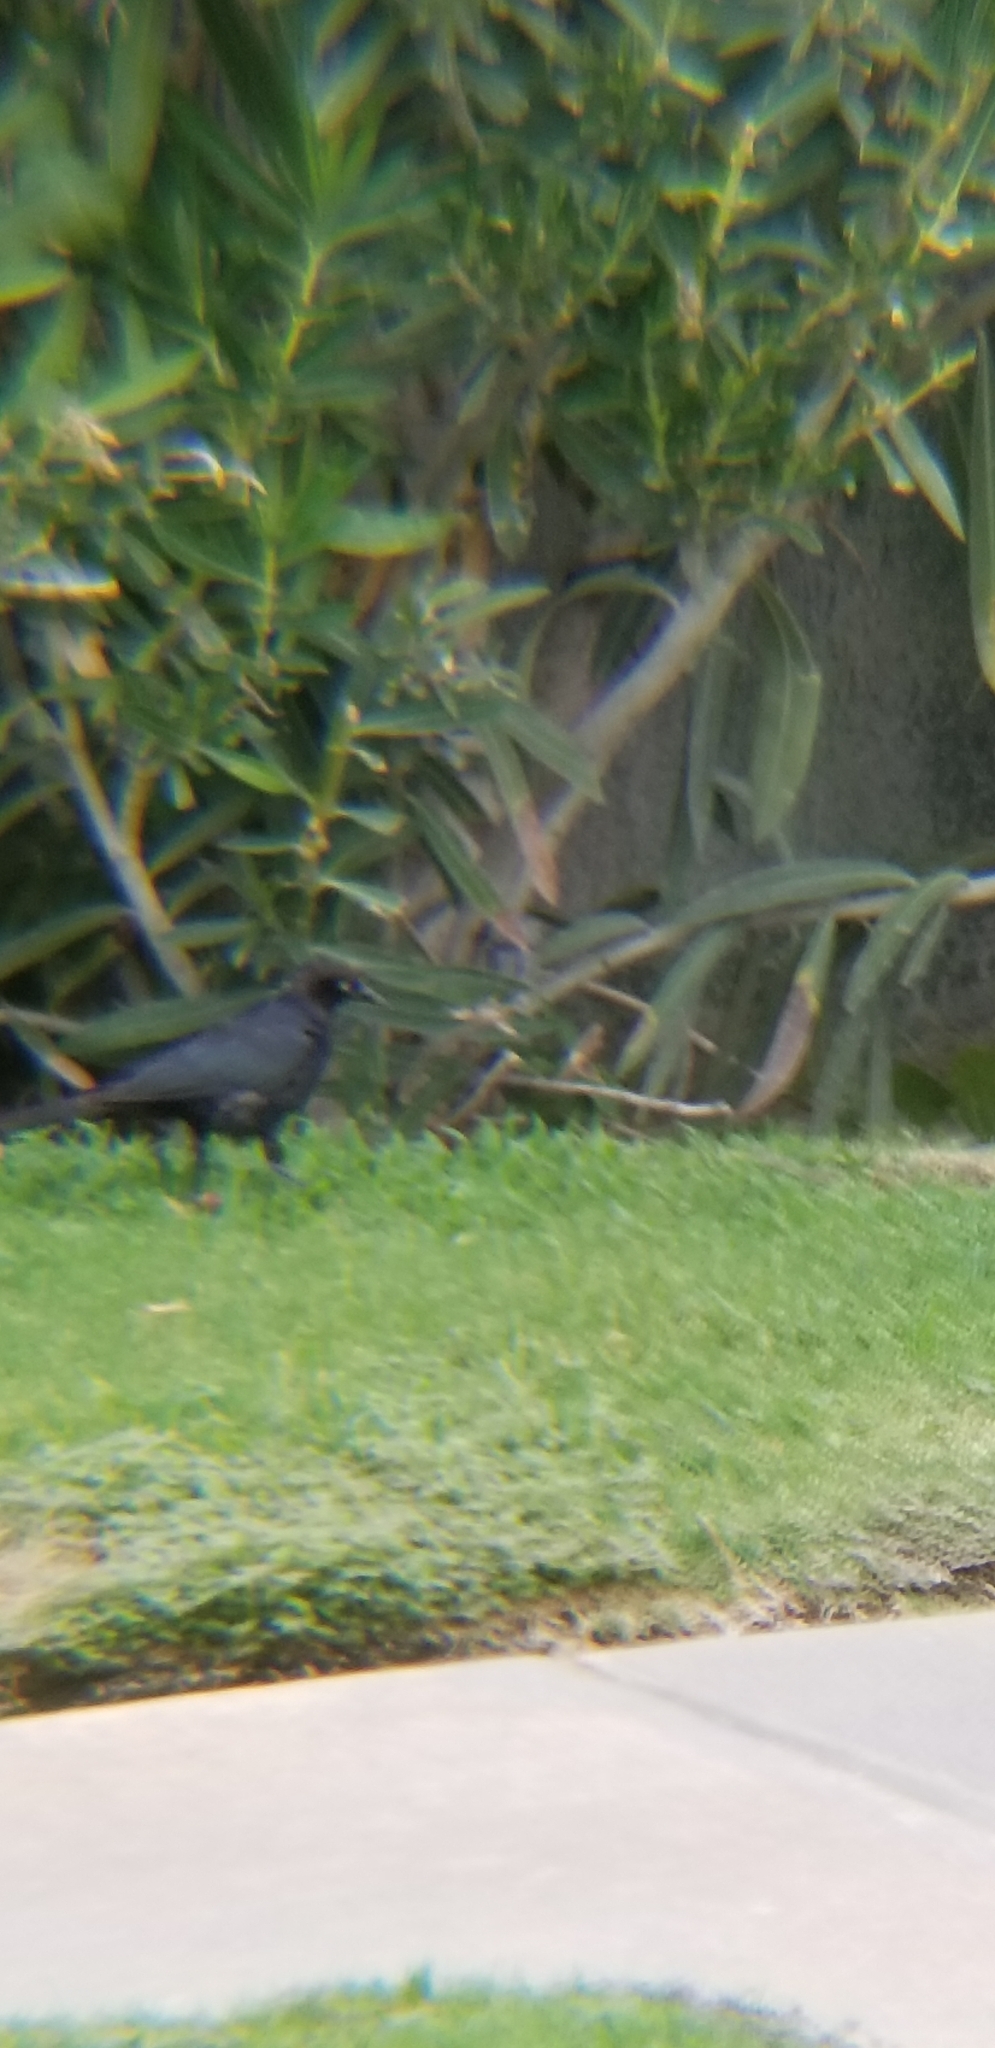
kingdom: Animalia
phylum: Chordata
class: Aves
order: Passeriformes
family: Icteridae
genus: Euphagus
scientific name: Euphagus cyanocephalus
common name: Brewer's blackbird
